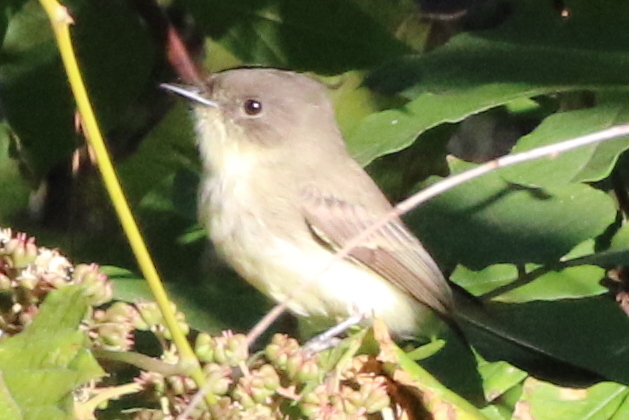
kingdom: Animalia
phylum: Chordata
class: Aves
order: Passeriformes
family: Tyrannidae
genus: Sayornis
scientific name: Sayornis phoebe
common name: Eastern phoebe
